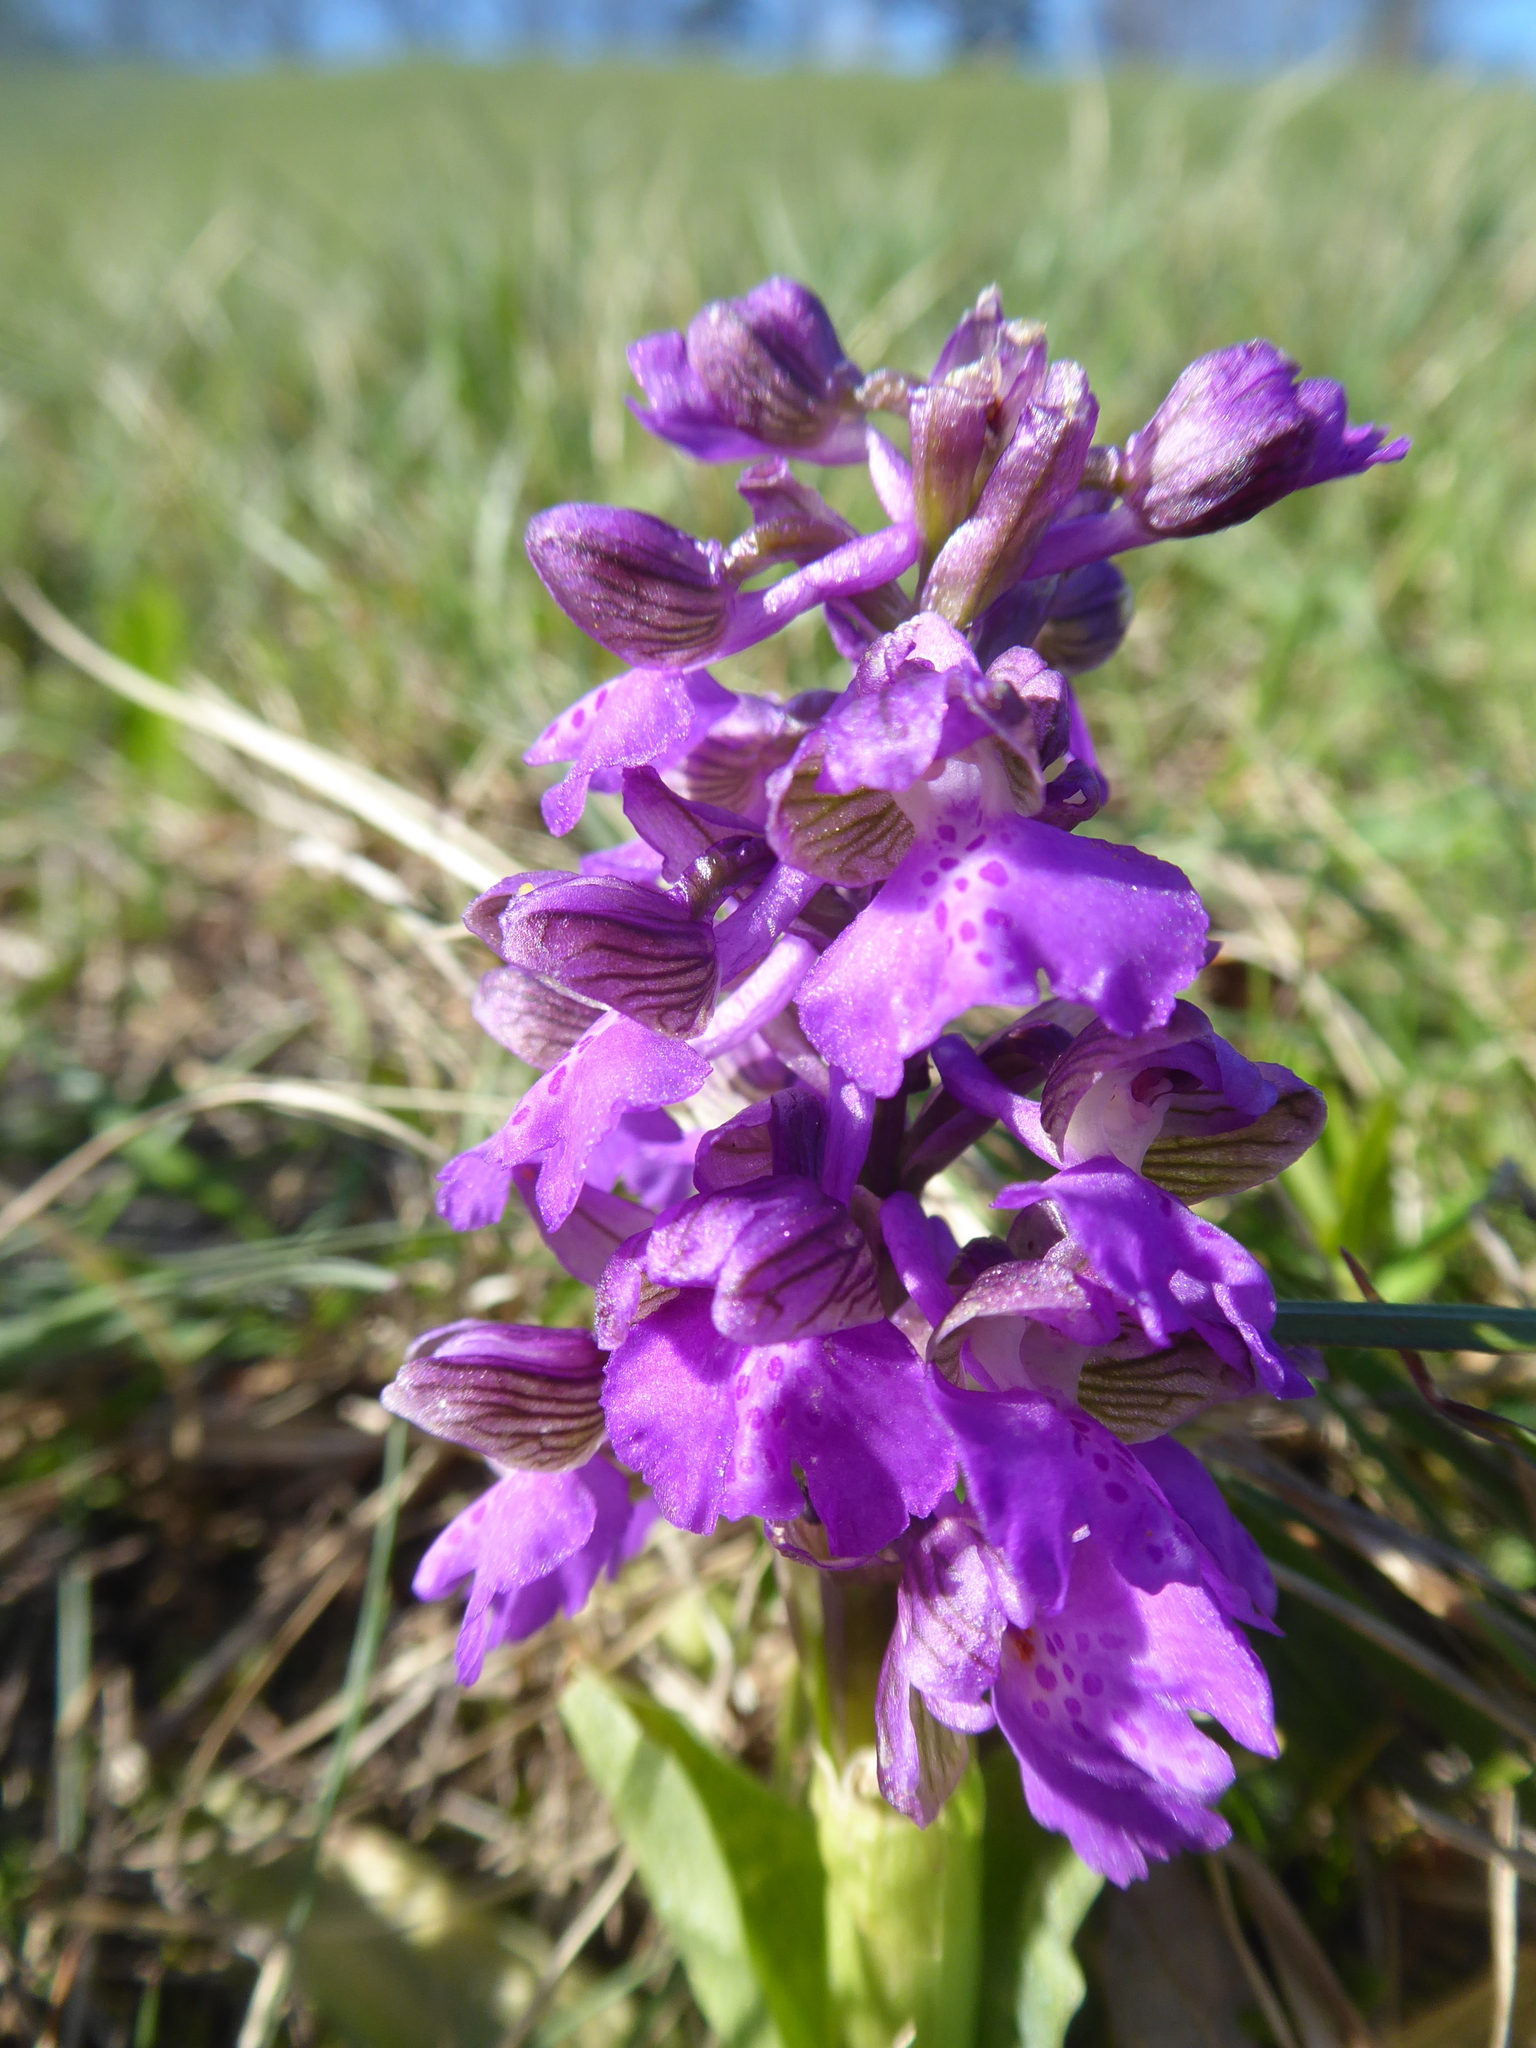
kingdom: Plantae
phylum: Tracheophyta
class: Liliopsida
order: Asparagales
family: Orchidaceae
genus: Anacamptis
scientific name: Anacamptis morio
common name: Green-winged orchid
